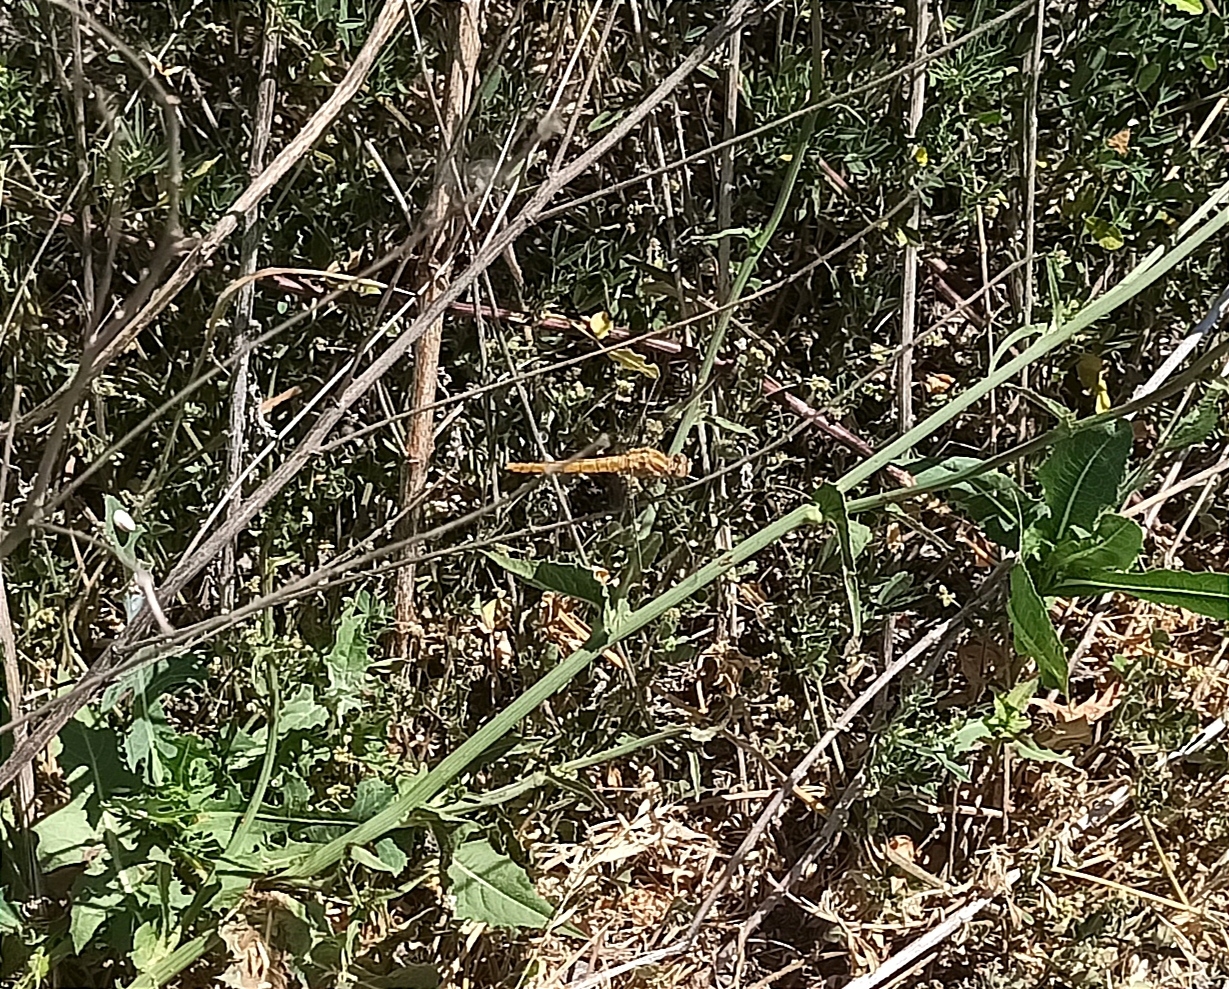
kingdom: Animalia
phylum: Arthropoda
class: Insecta
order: Odonata
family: Libellulidae
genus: Orthetrum
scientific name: Orthetrum brunneum
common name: Southern skimmer
